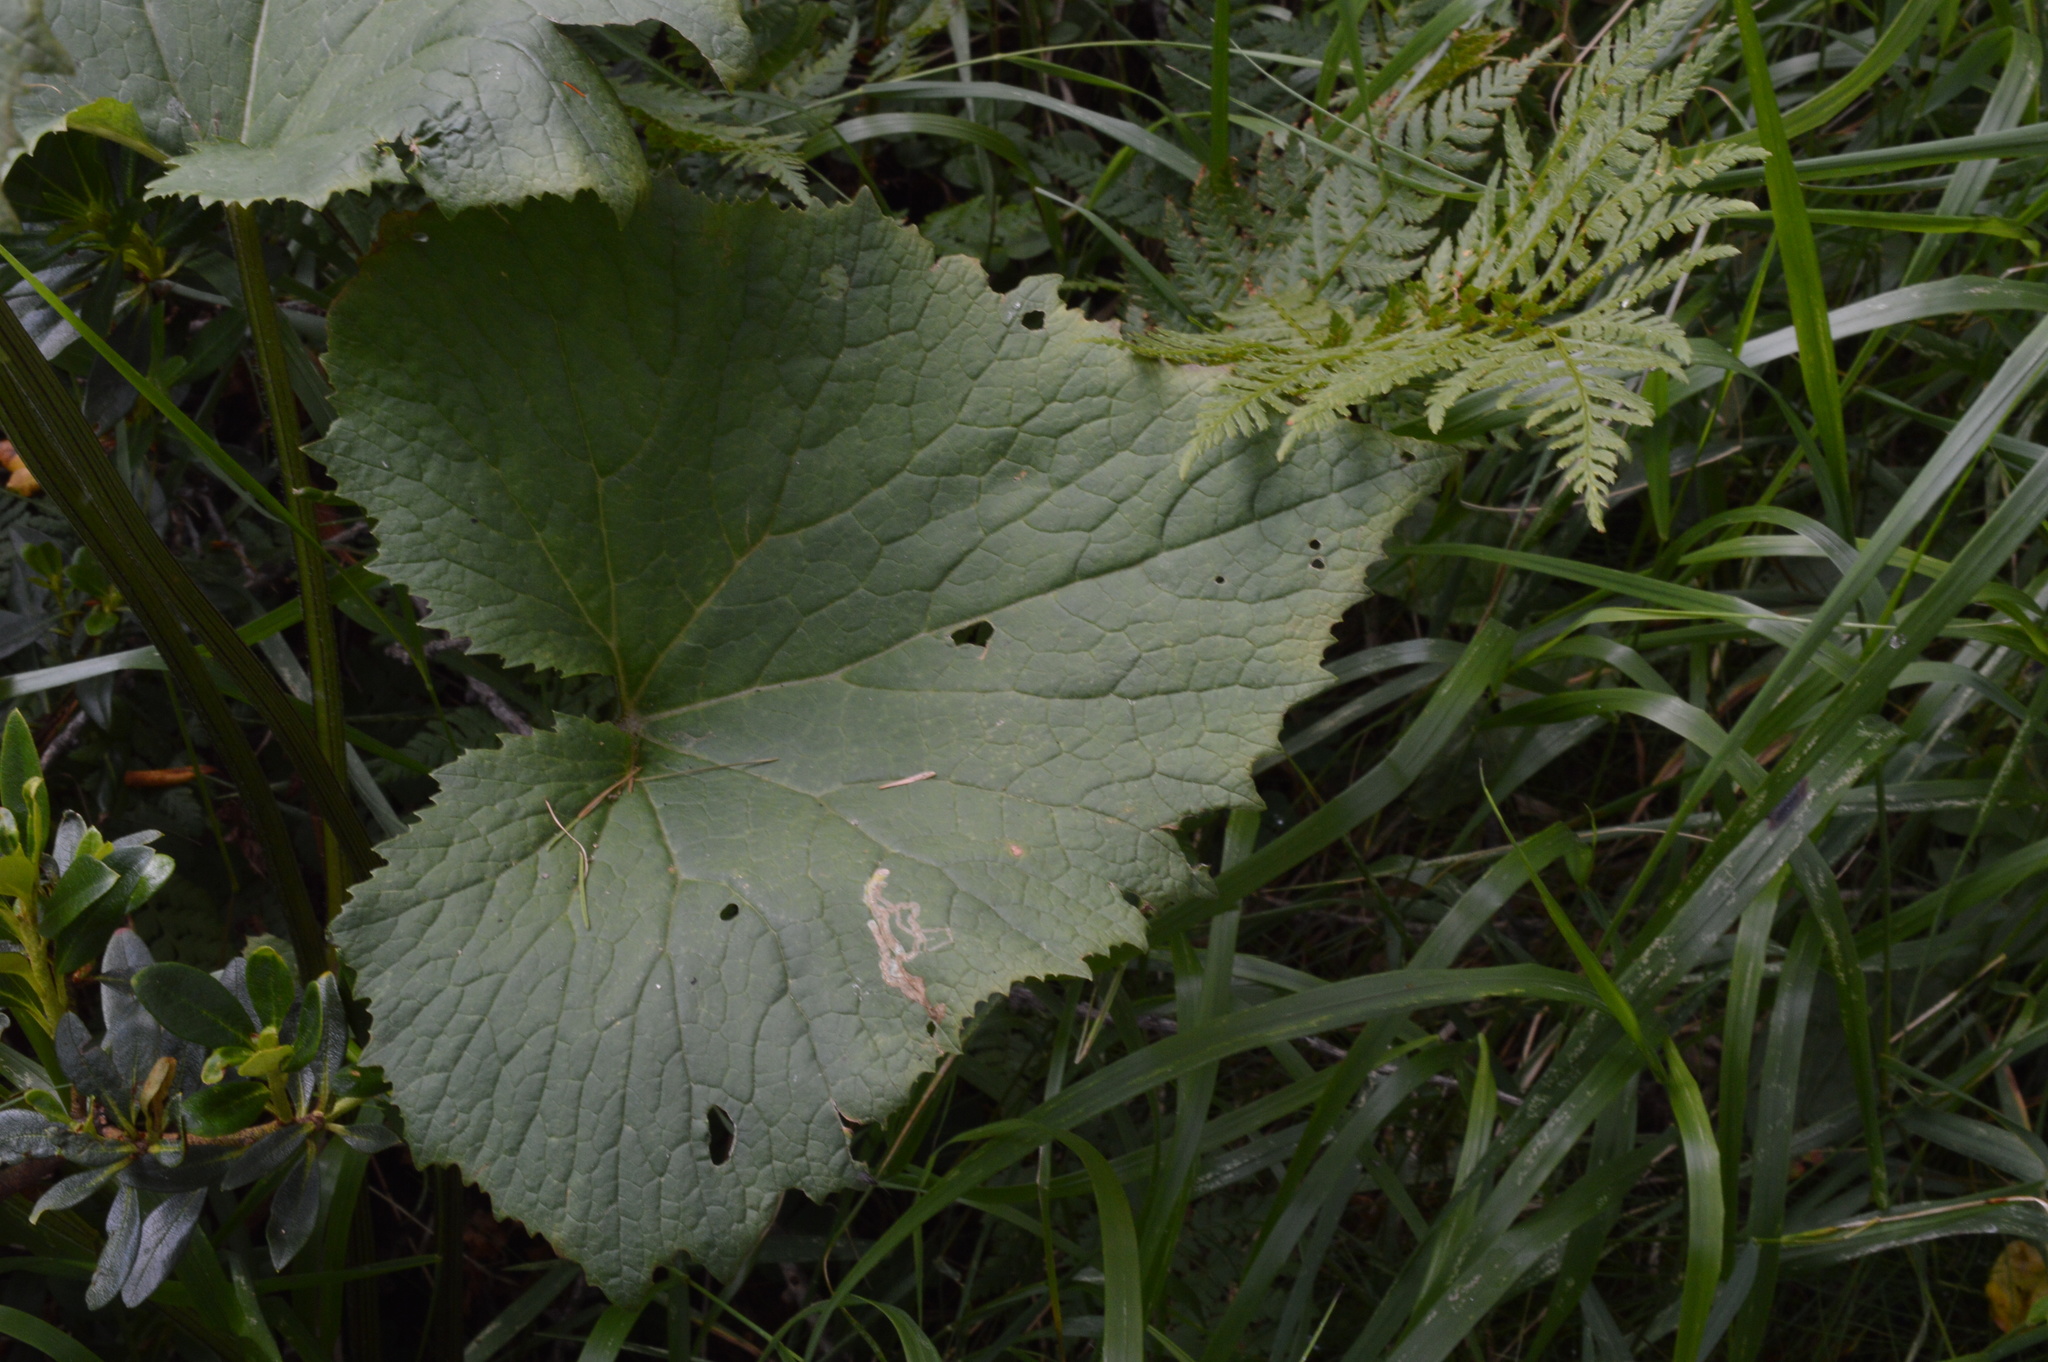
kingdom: Plantae
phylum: Tracheophyta
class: Magnoliopsida
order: Asterales
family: Asteraceae
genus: Adenostyles
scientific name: Adenostyles alliariae
